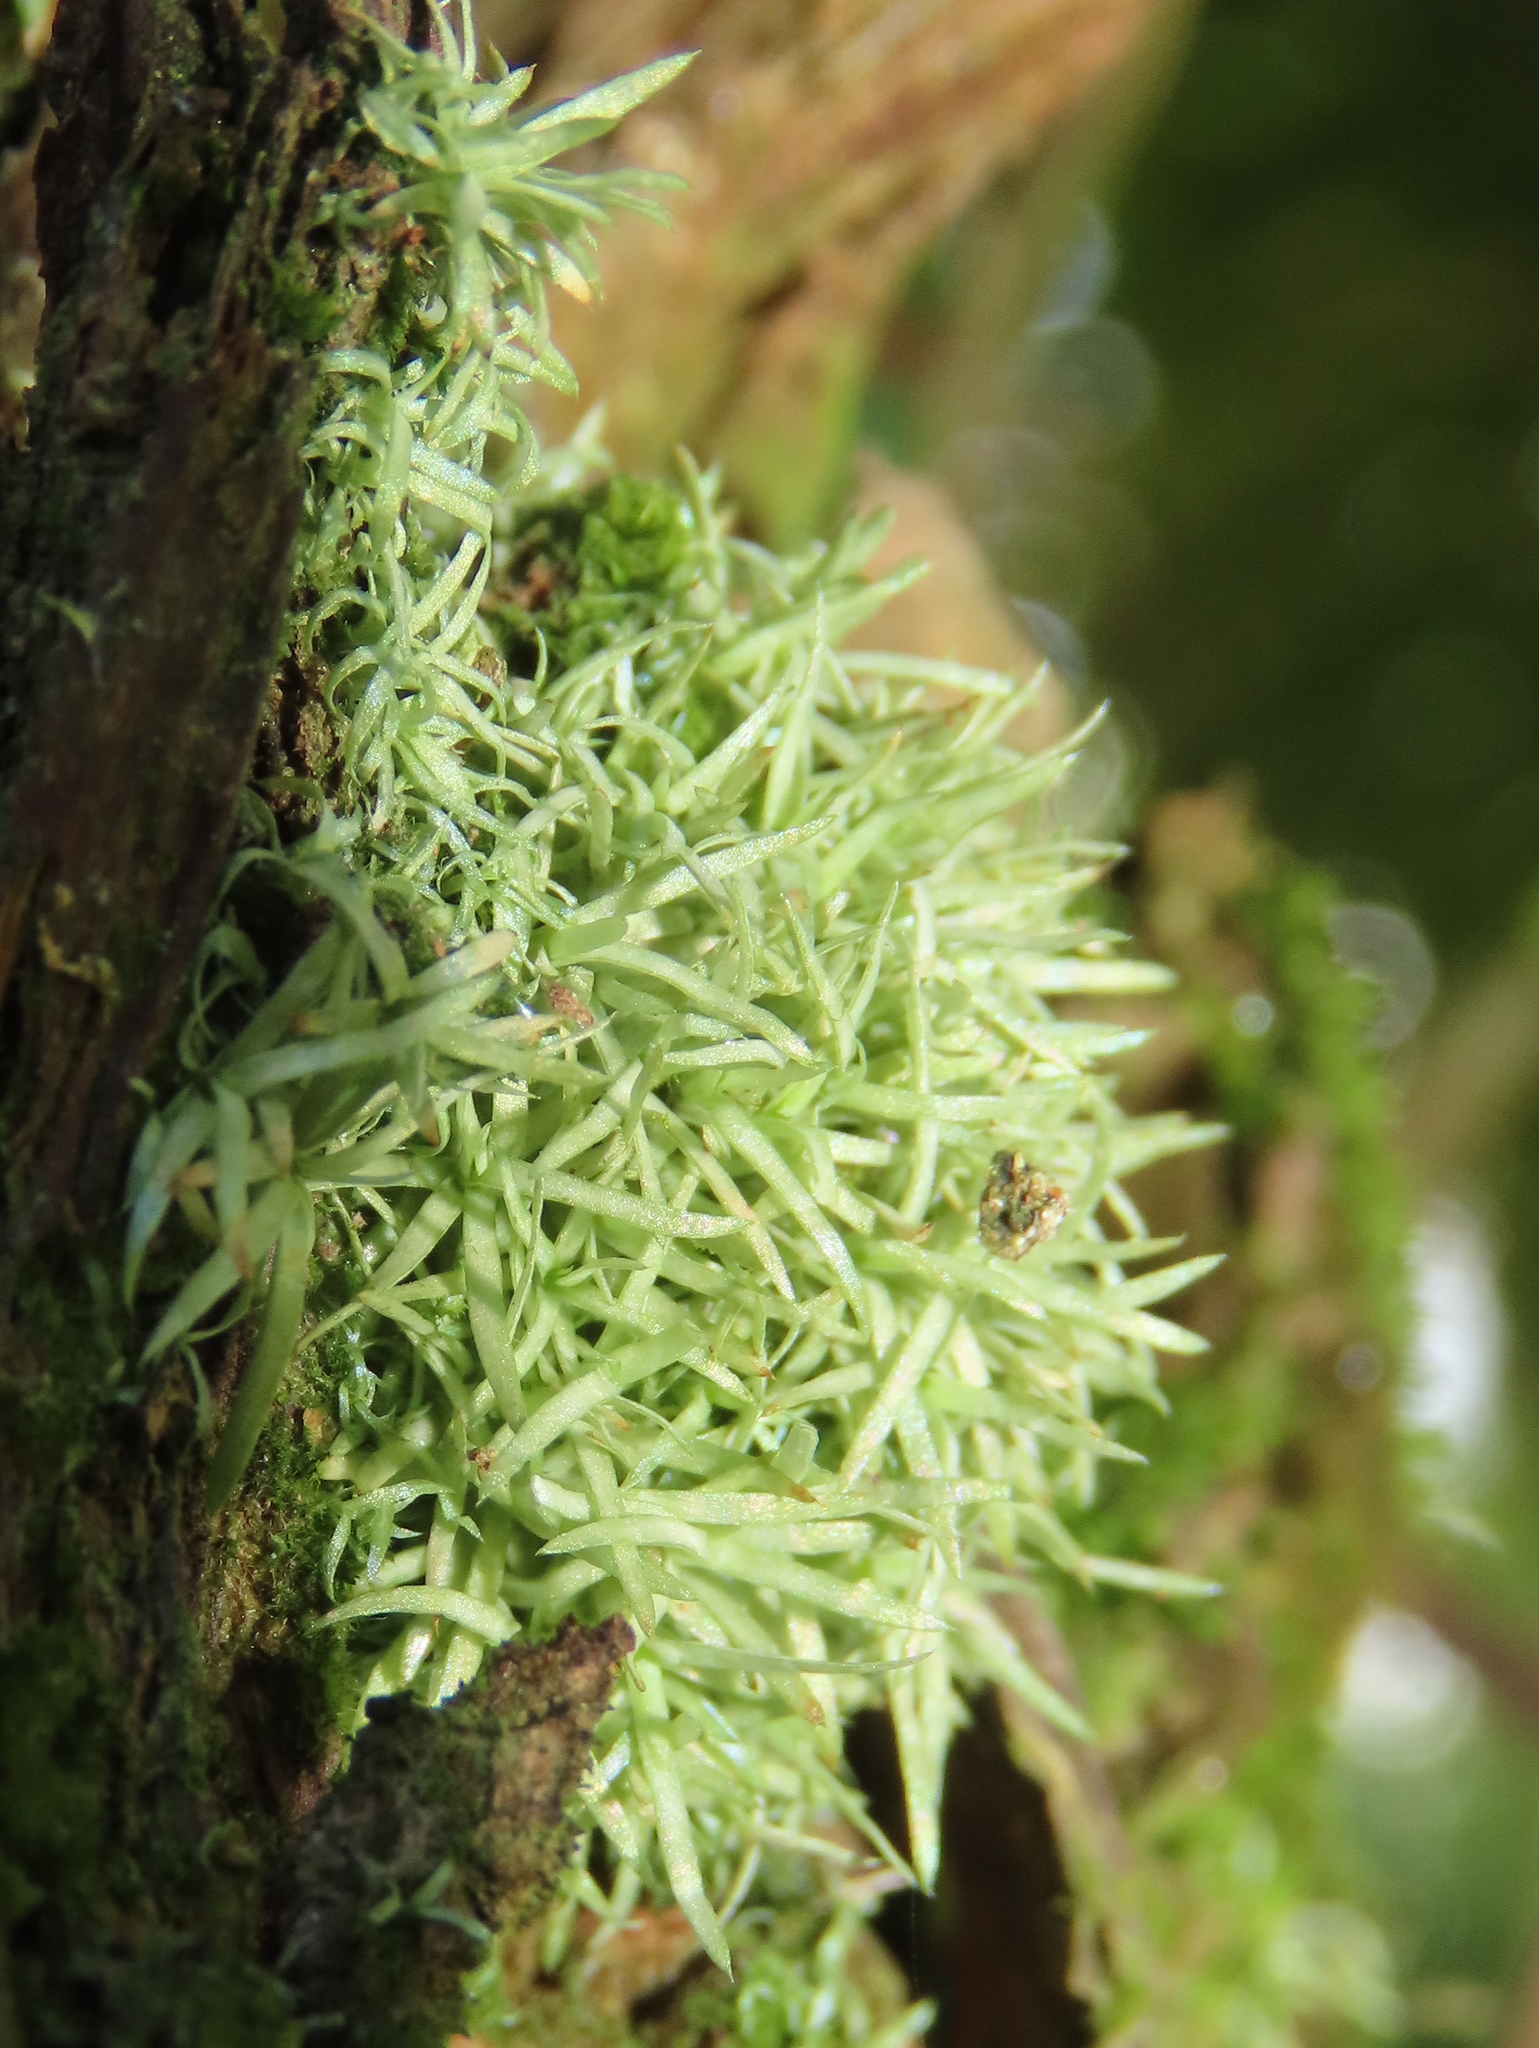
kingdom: Plantae
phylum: Bryophyta
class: Bryopsida
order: Dicranales
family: Octoblepharaceae
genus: Octoblepharum
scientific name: Octoblepharum albidum
